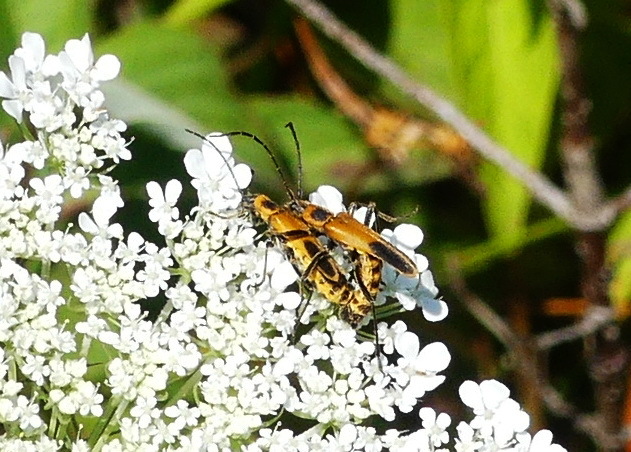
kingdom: Animalia
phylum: Arthropoda
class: Insecta
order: Coleoptera
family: Cantharidae
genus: Chauliognathus
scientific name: Chauliognathus pensylvanicus
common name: Goldenrod soldier beetle
